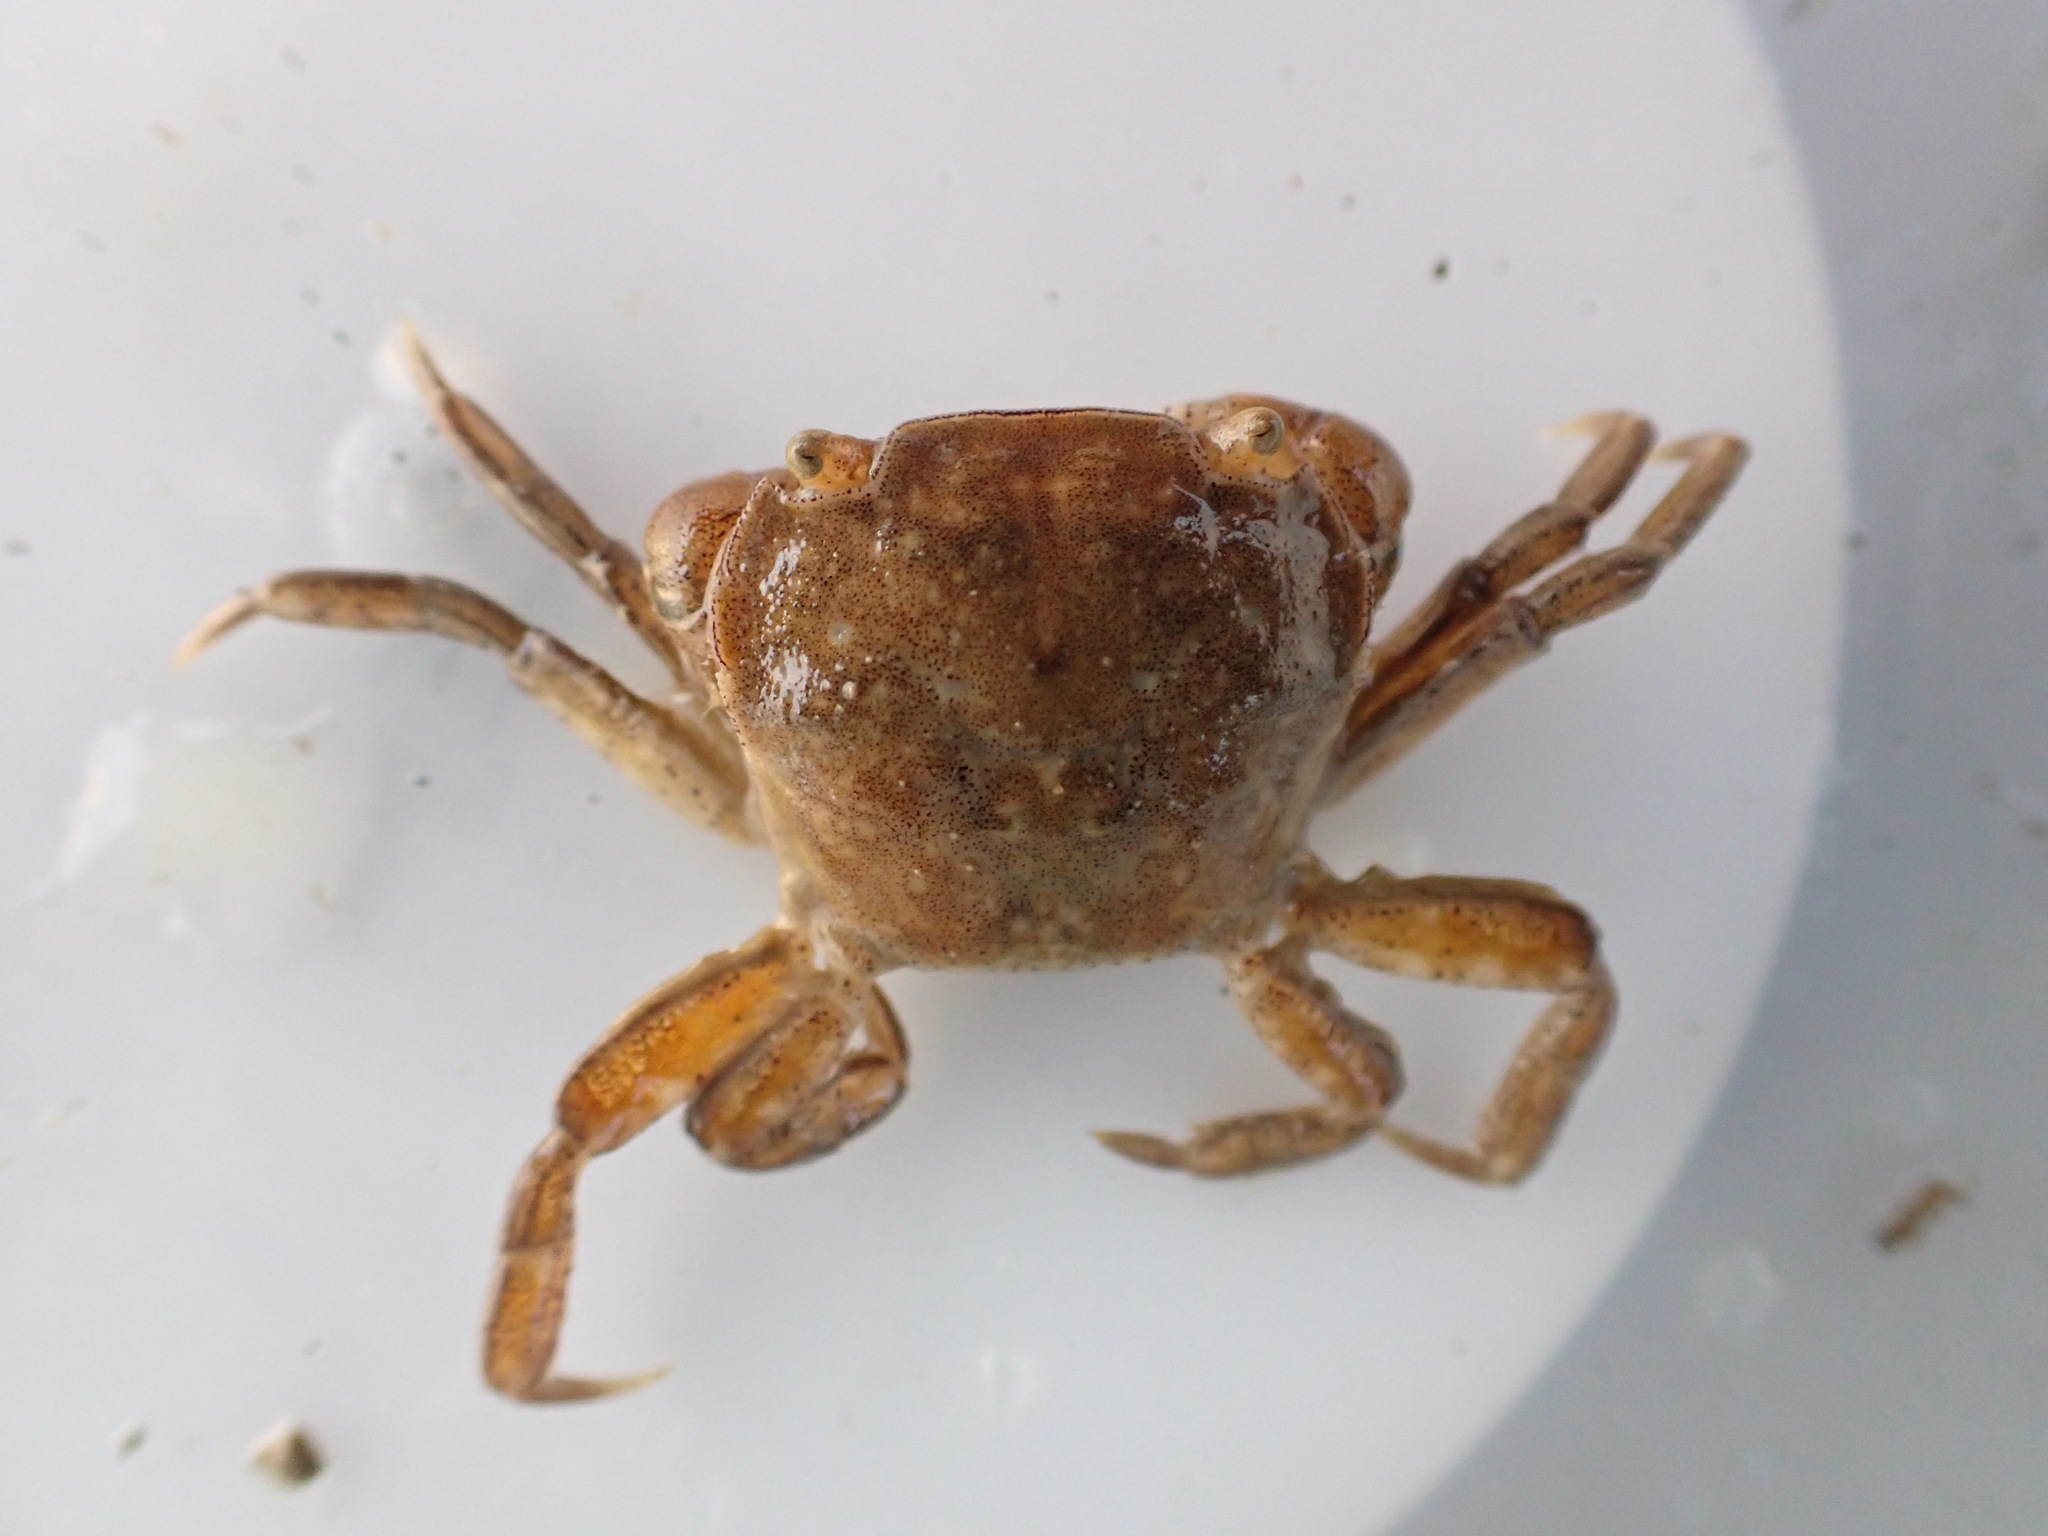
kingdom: Animalia
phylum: Arthropoda
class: Malacostraca
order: Decapoda
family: Varunidae
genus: Hemigrapsus
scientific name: Hemigrapsus crenulatus
